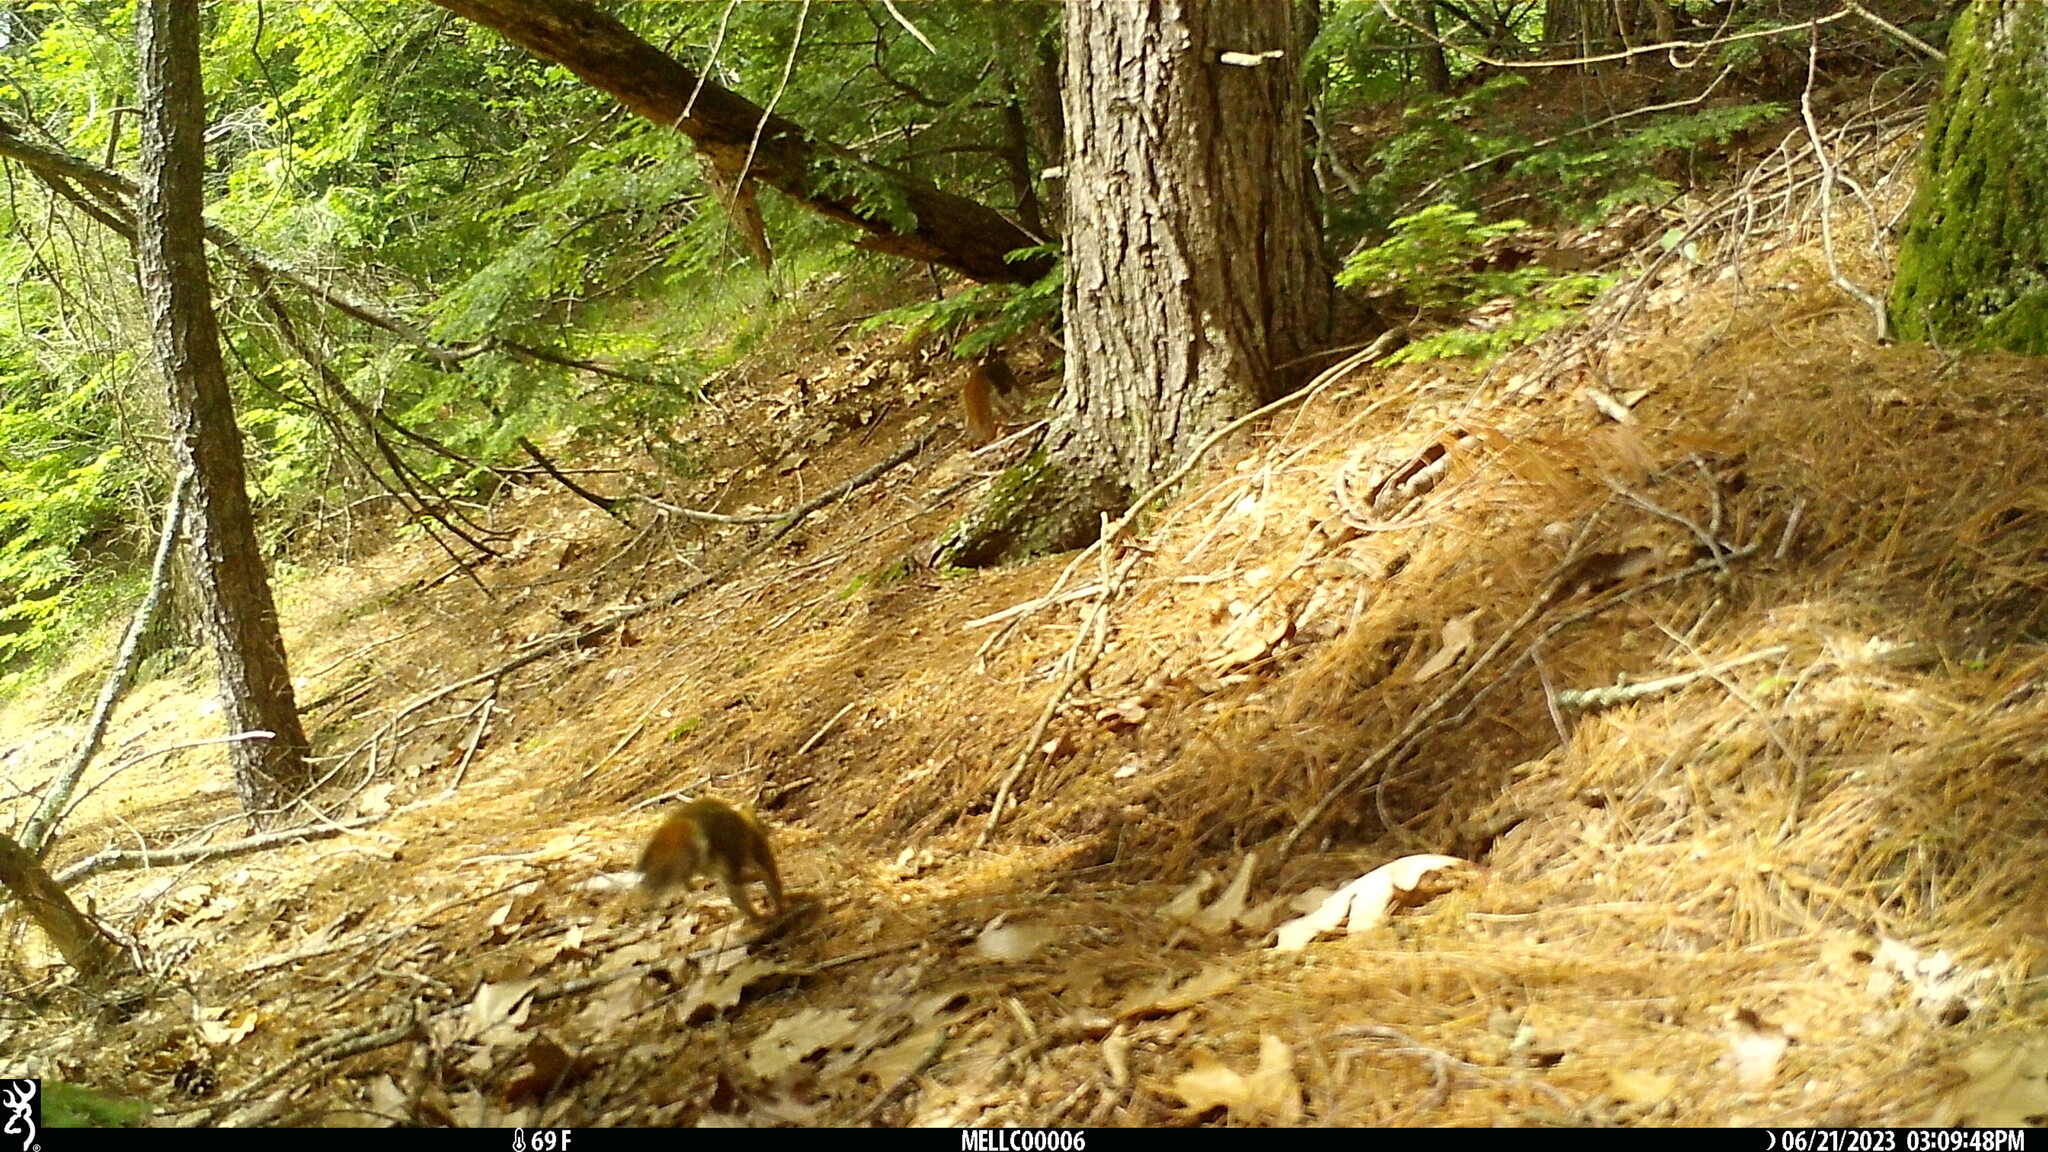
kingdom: Animalia
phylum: Chordata
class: Mammalia
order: Rodentia
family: Sciuridae
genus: Tamiasciurus
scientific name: Tamiasciurus hudsonicus
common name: Red squirrel
